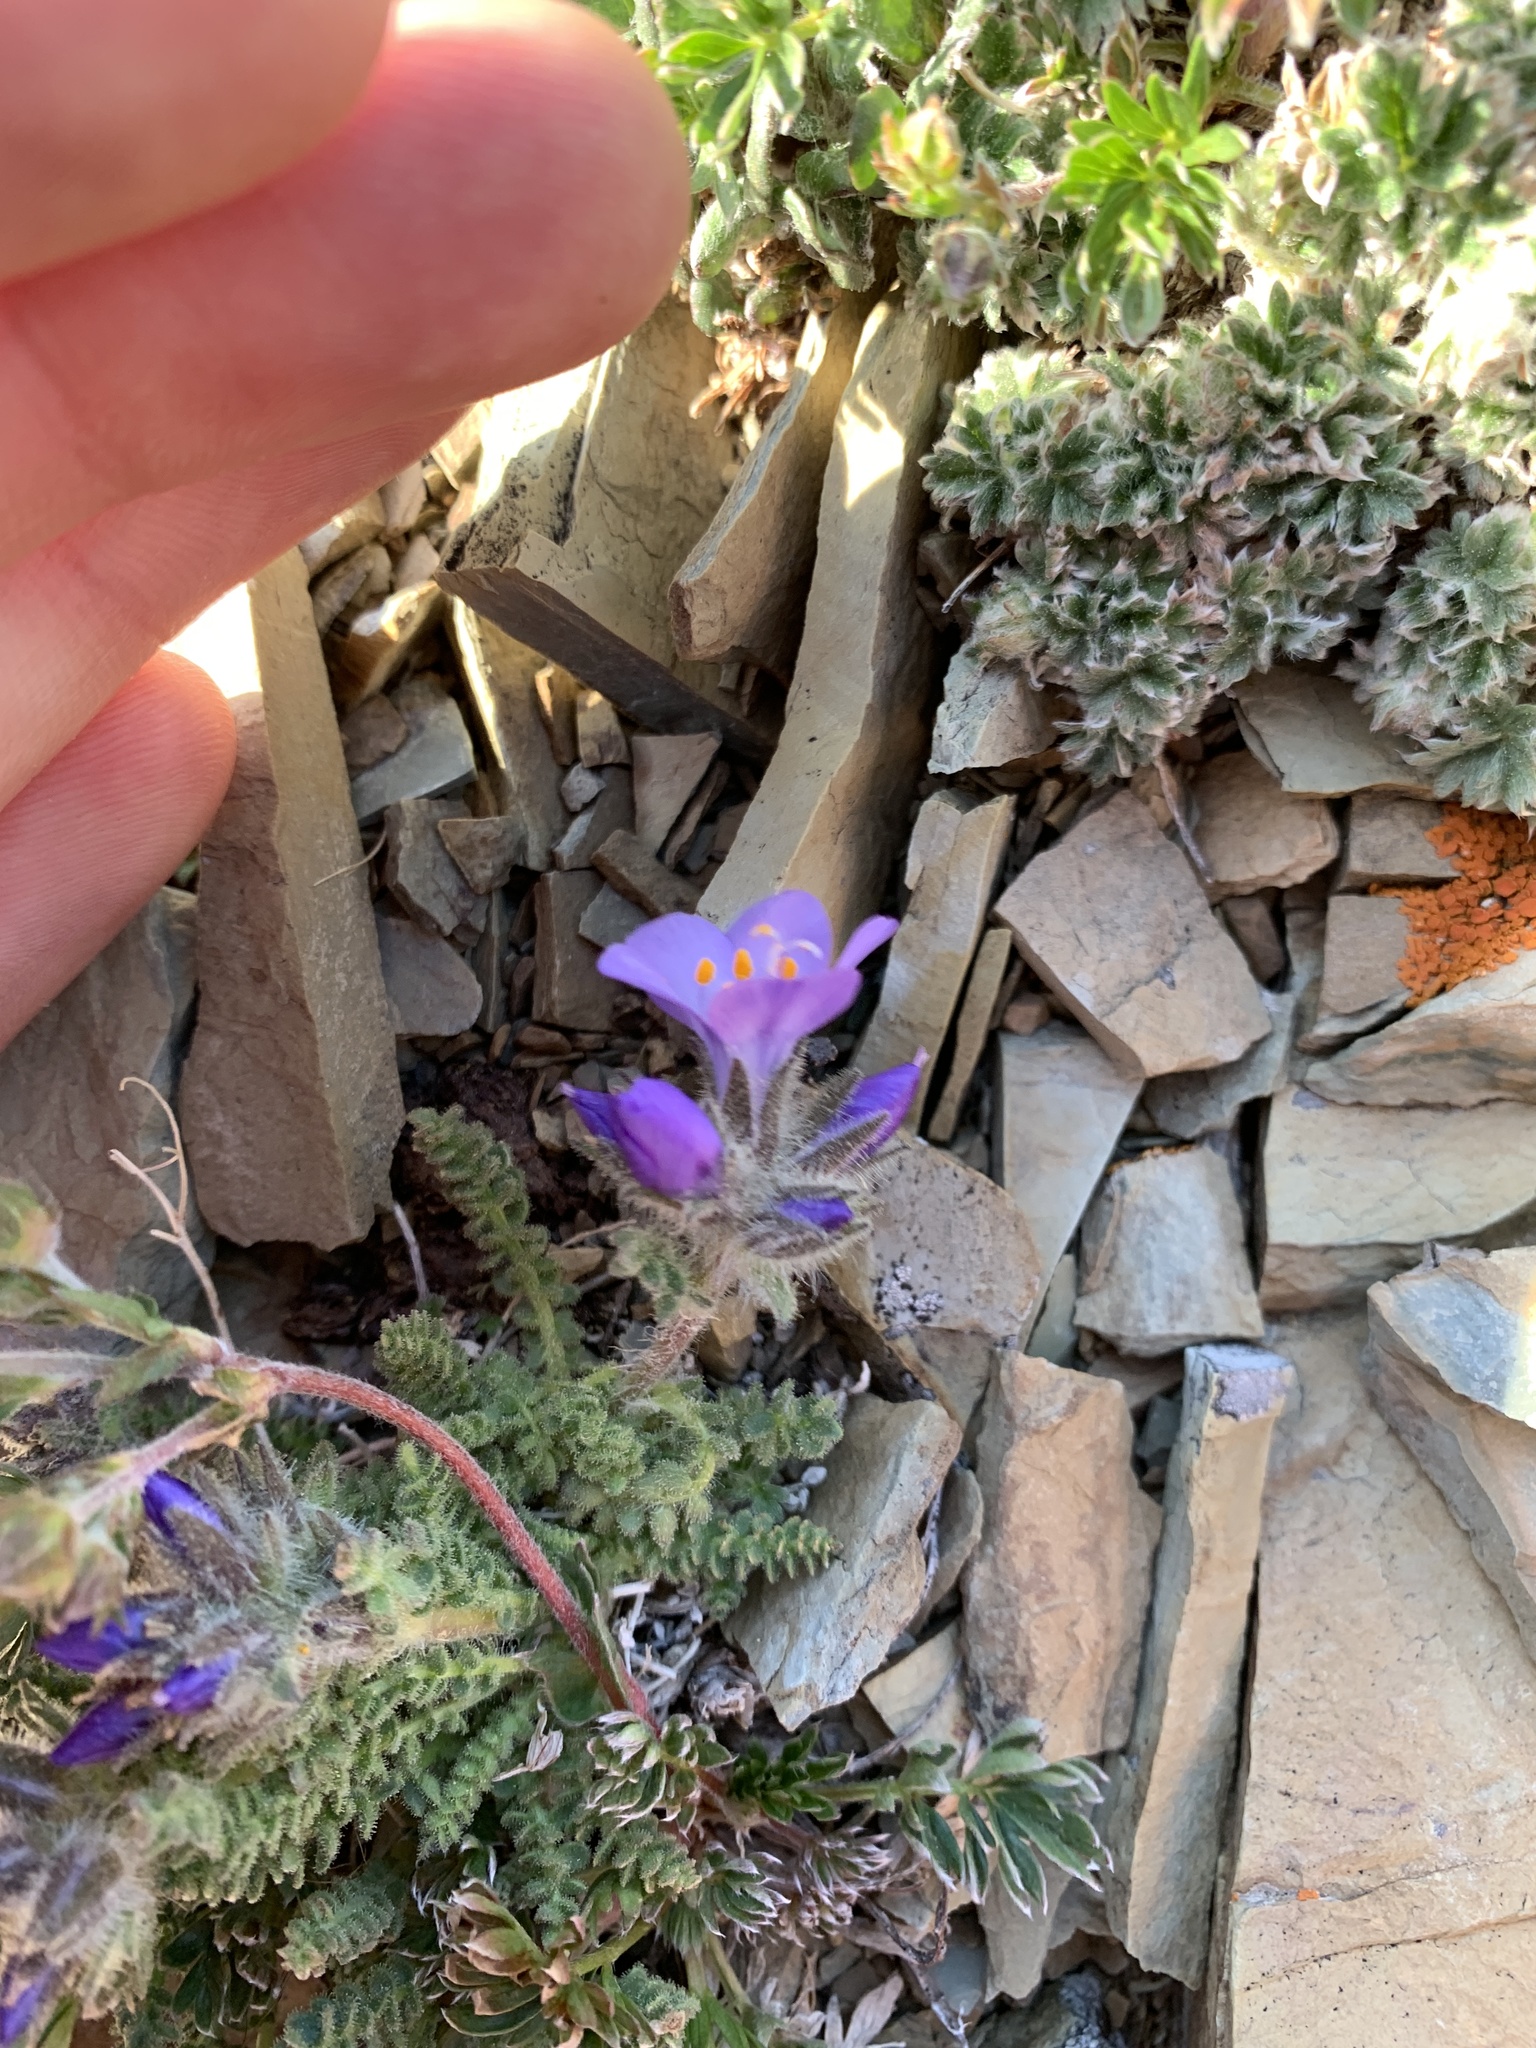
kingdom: Plantae
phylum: Tracheophyta
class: Magnoliopsida
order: Ericales
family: Polemoniaceae
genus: Polemonium
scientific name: Polemonium viscosum
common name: Skunk jacob's-ladder
